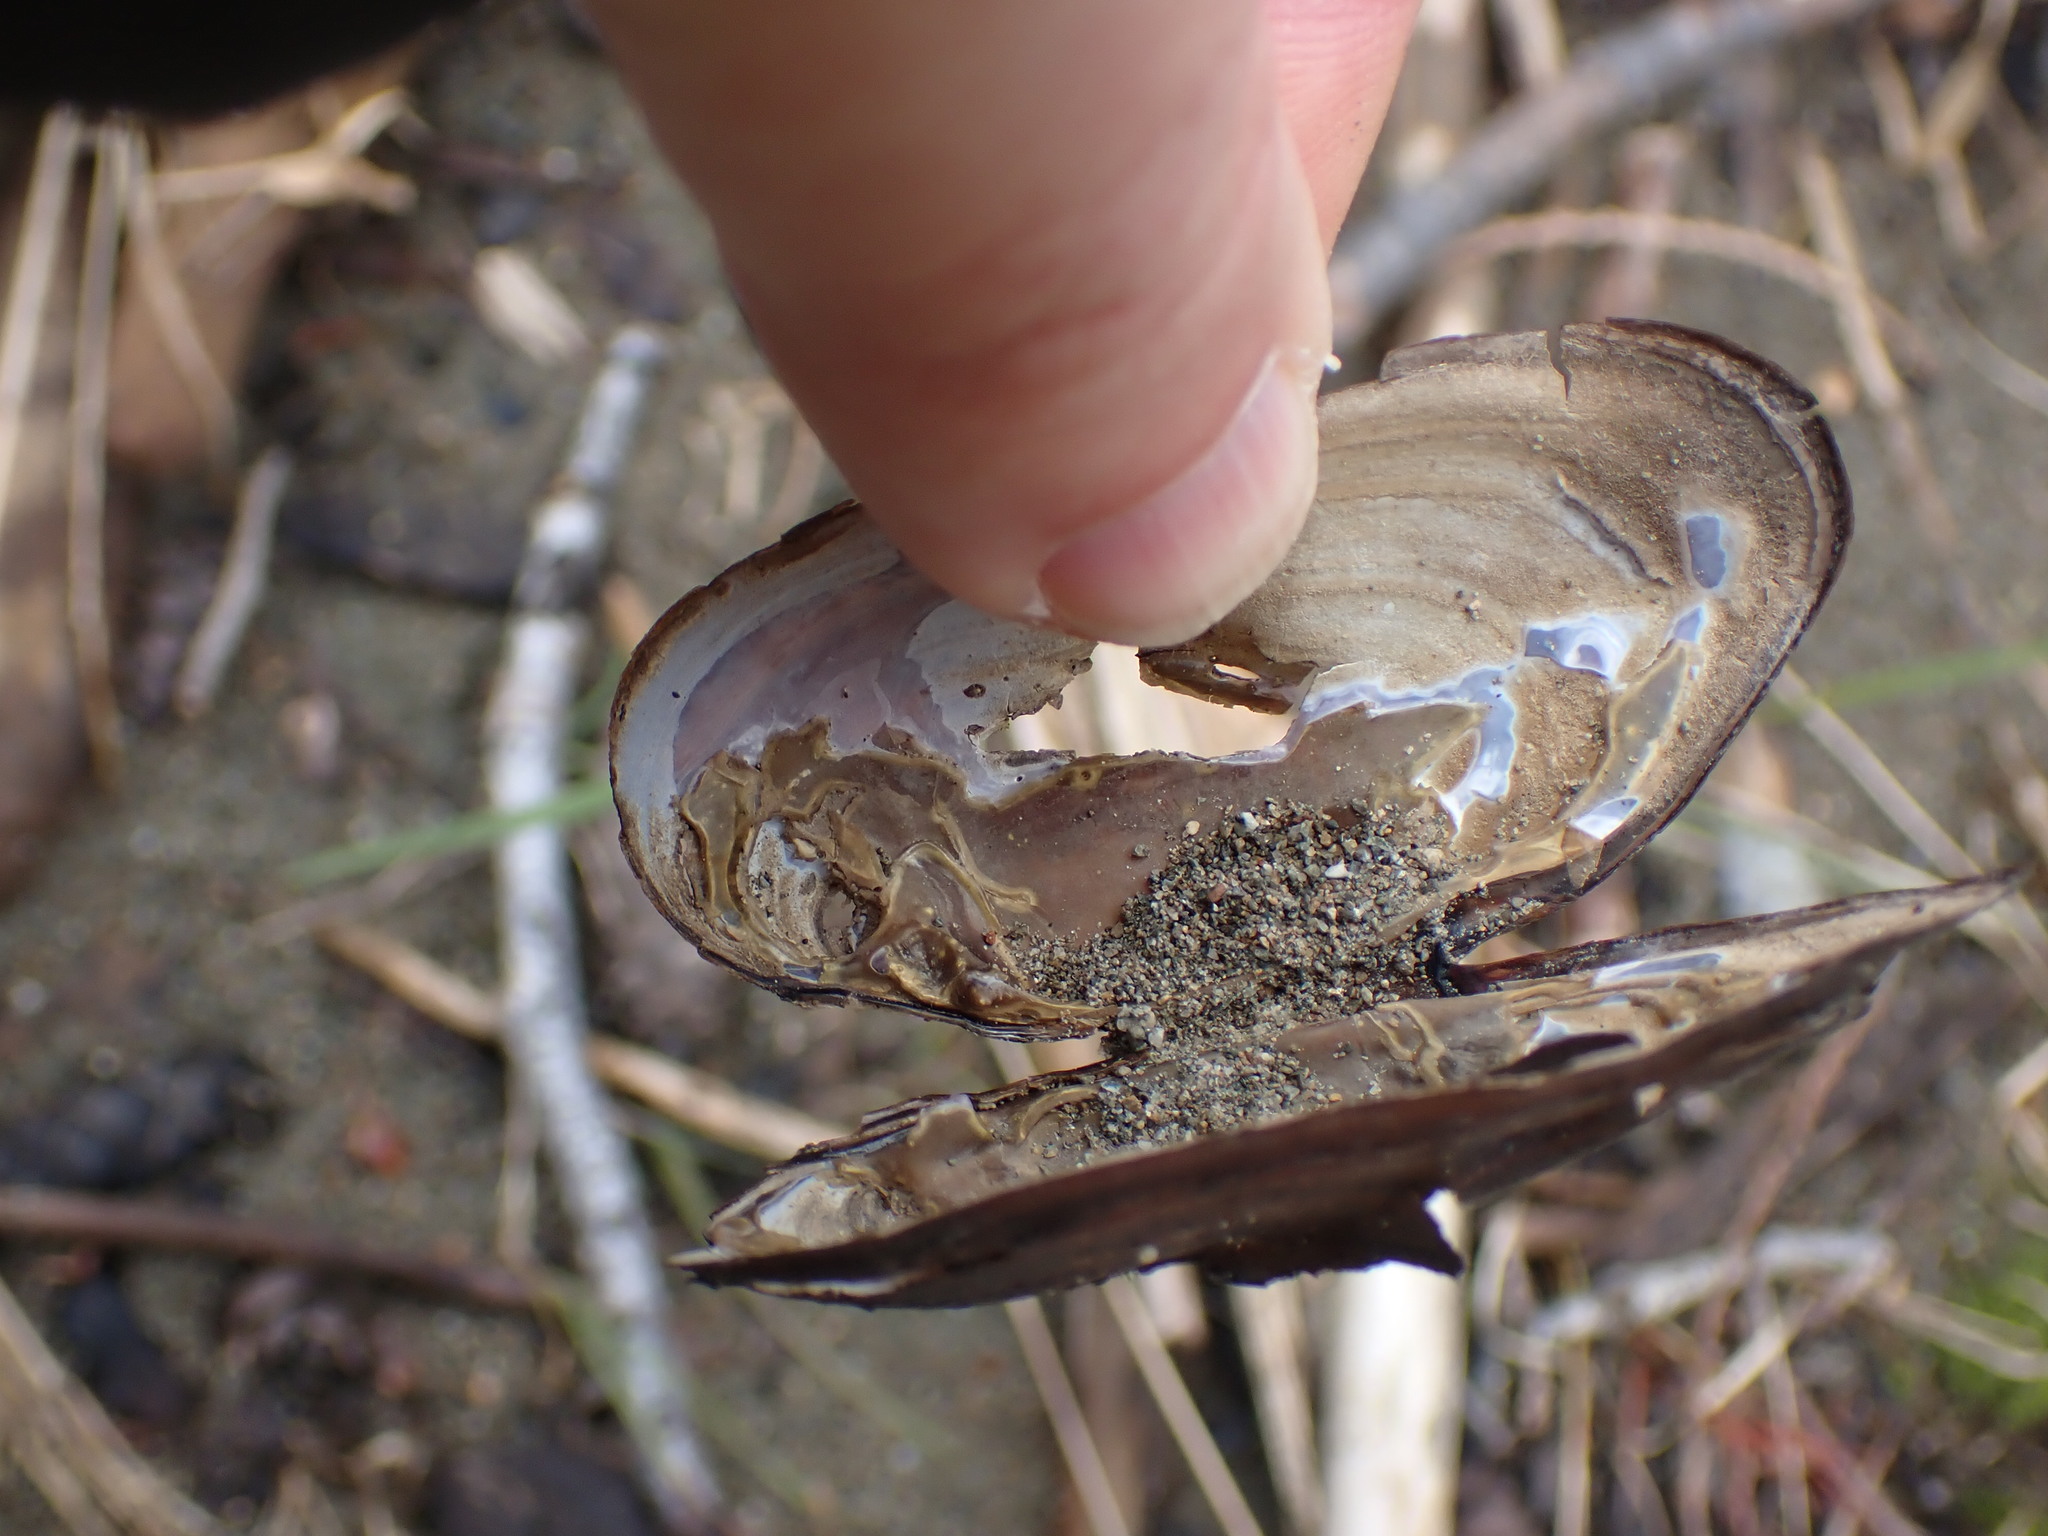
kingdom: Animalia
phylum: Mollusca
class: Bivalvia
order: Unionida
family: Margaritiferidae
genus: Margaritifera
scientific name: Margaritifera falcata
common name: Western pearlshell
